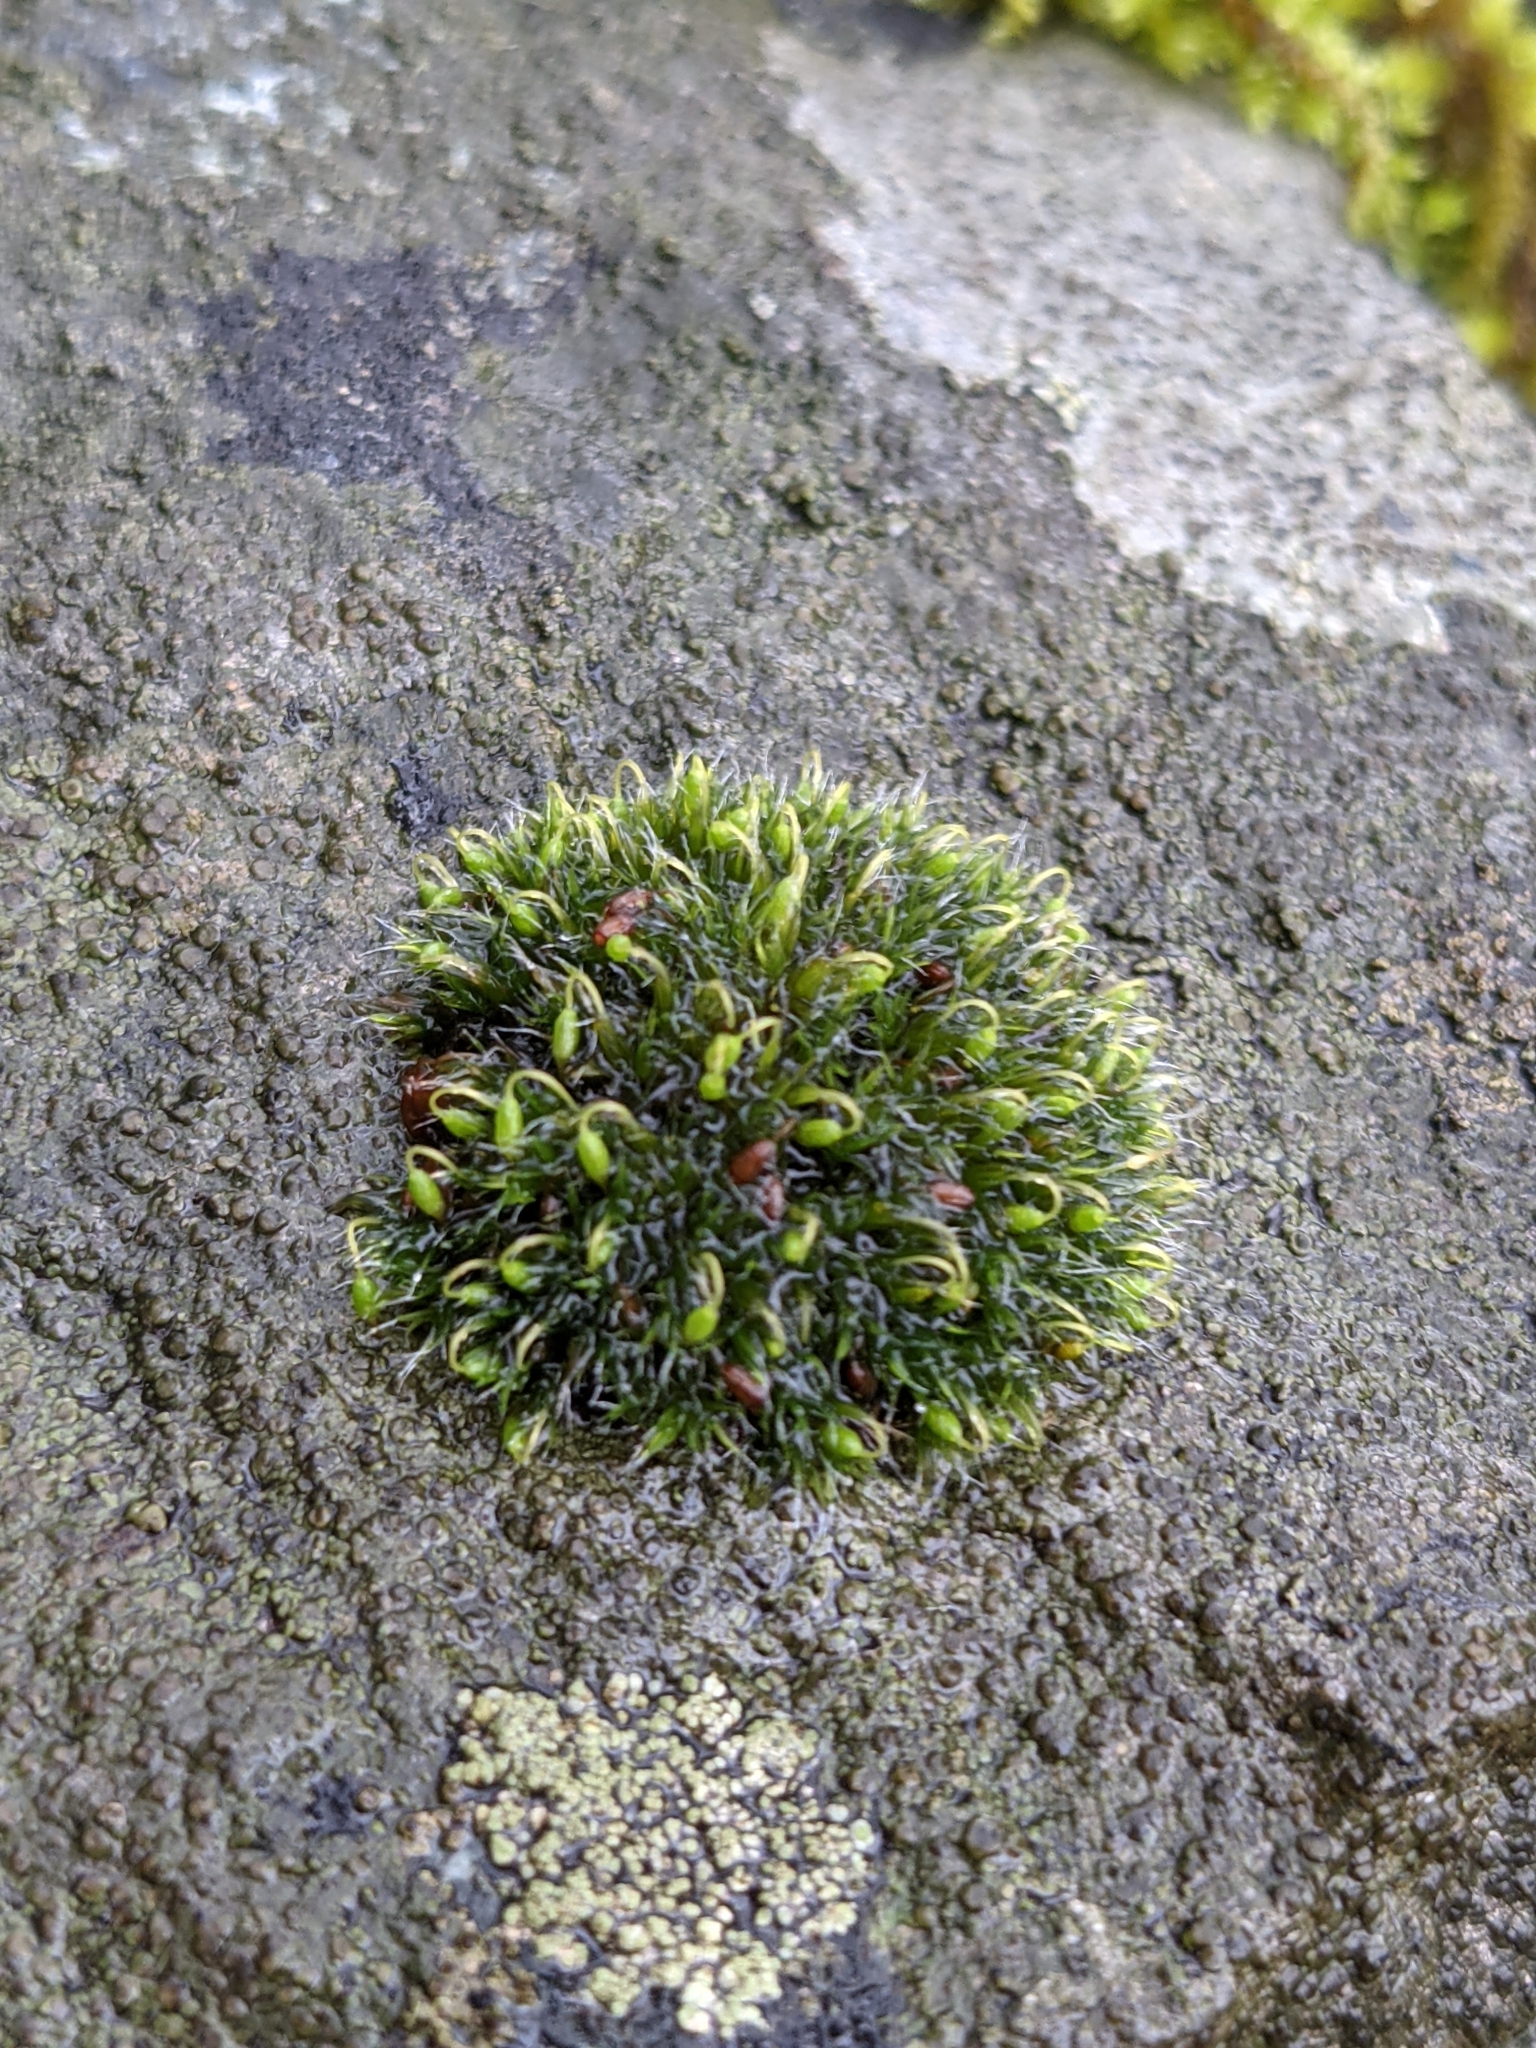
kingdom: Plantae
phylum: Bryophyta
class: Bryopsida
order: Grimmiales
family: Grimmiaceae
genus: Grimmia
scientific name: Grimmia pulvinata
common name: Grey-cushioned grimmia
